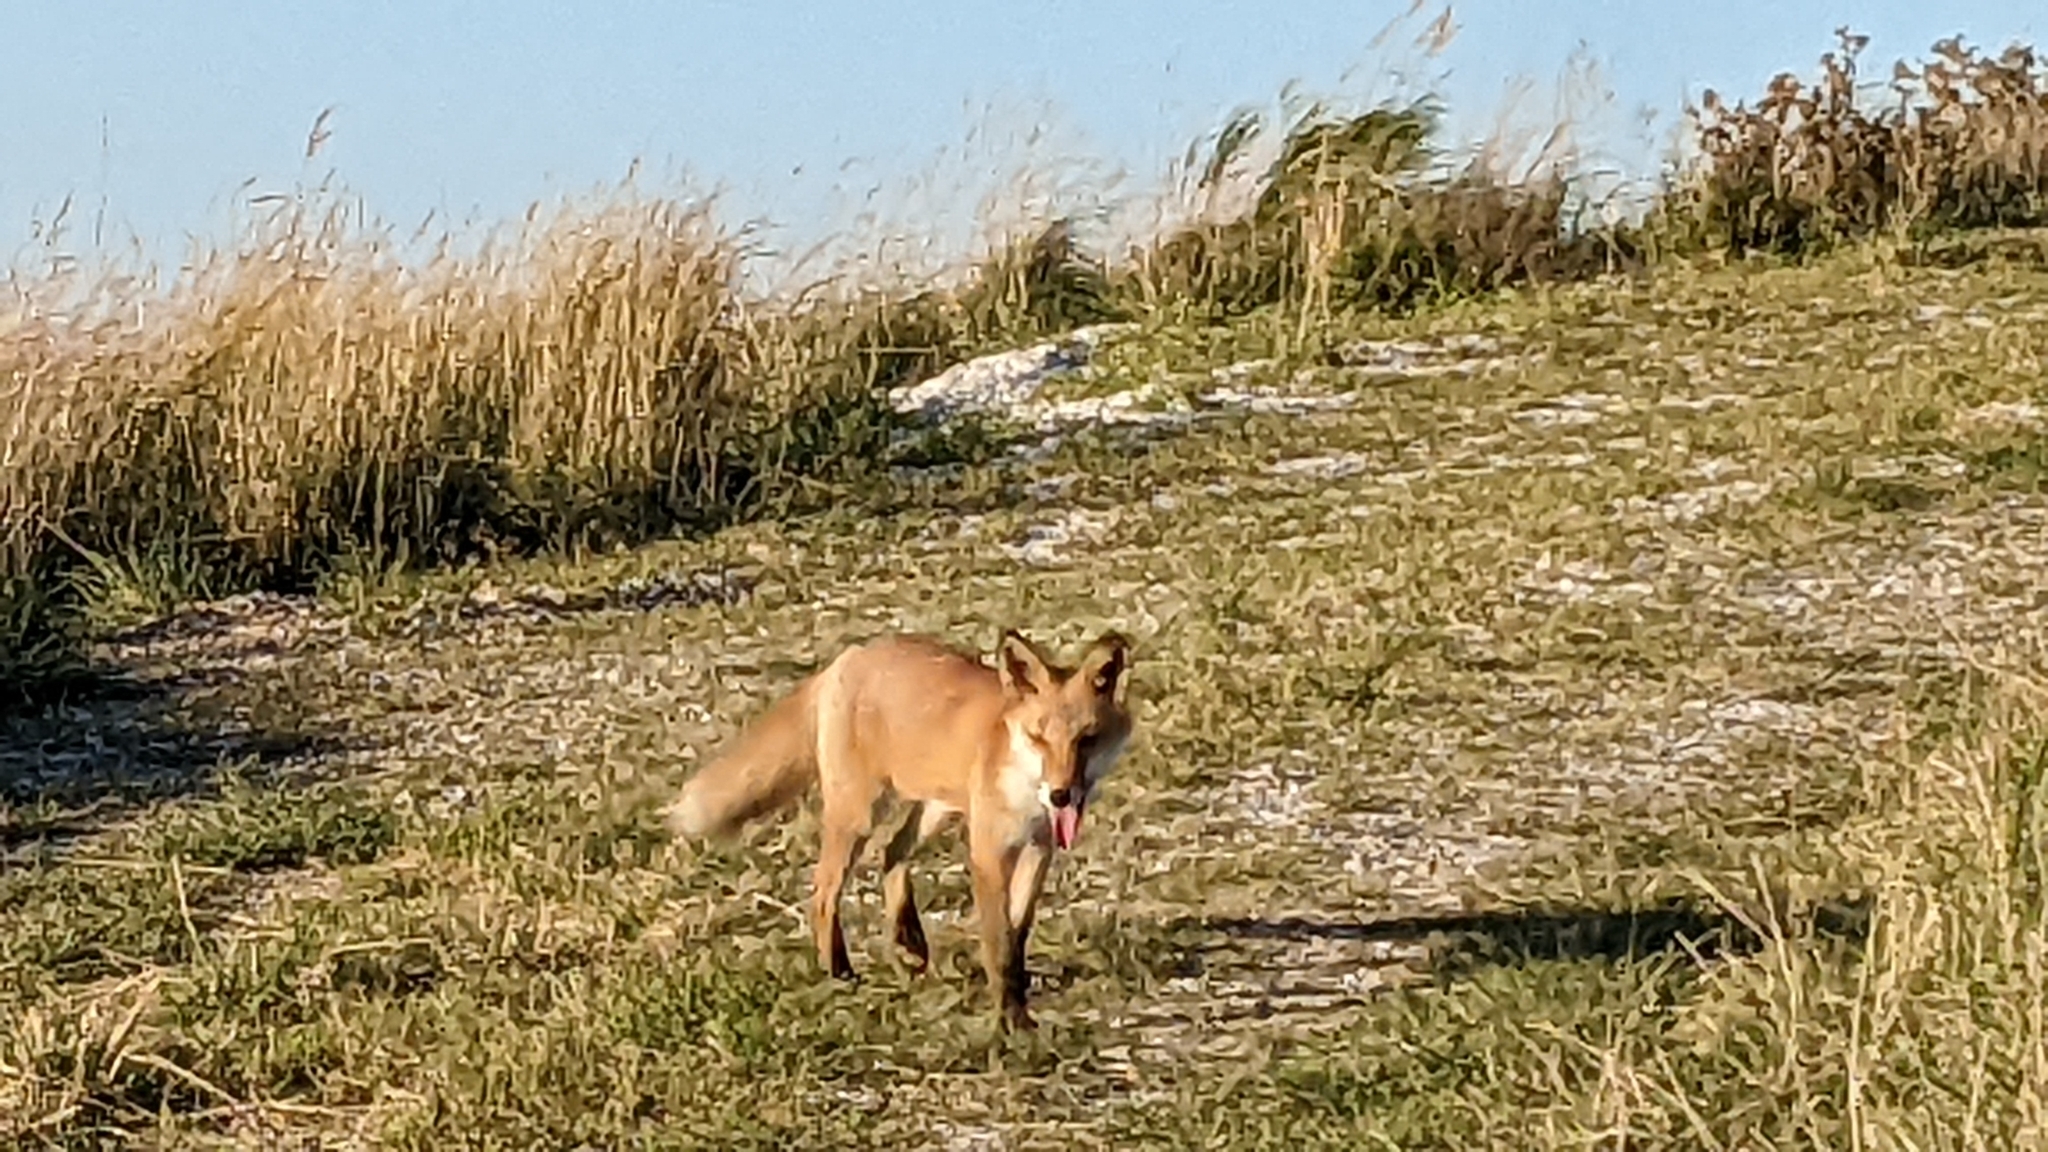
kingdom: Animalia
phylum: Chordata
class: Mammalia
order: Carnivora
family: Canidae
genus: Vulpes
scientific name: Vulpes vulpes
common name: Red fox
